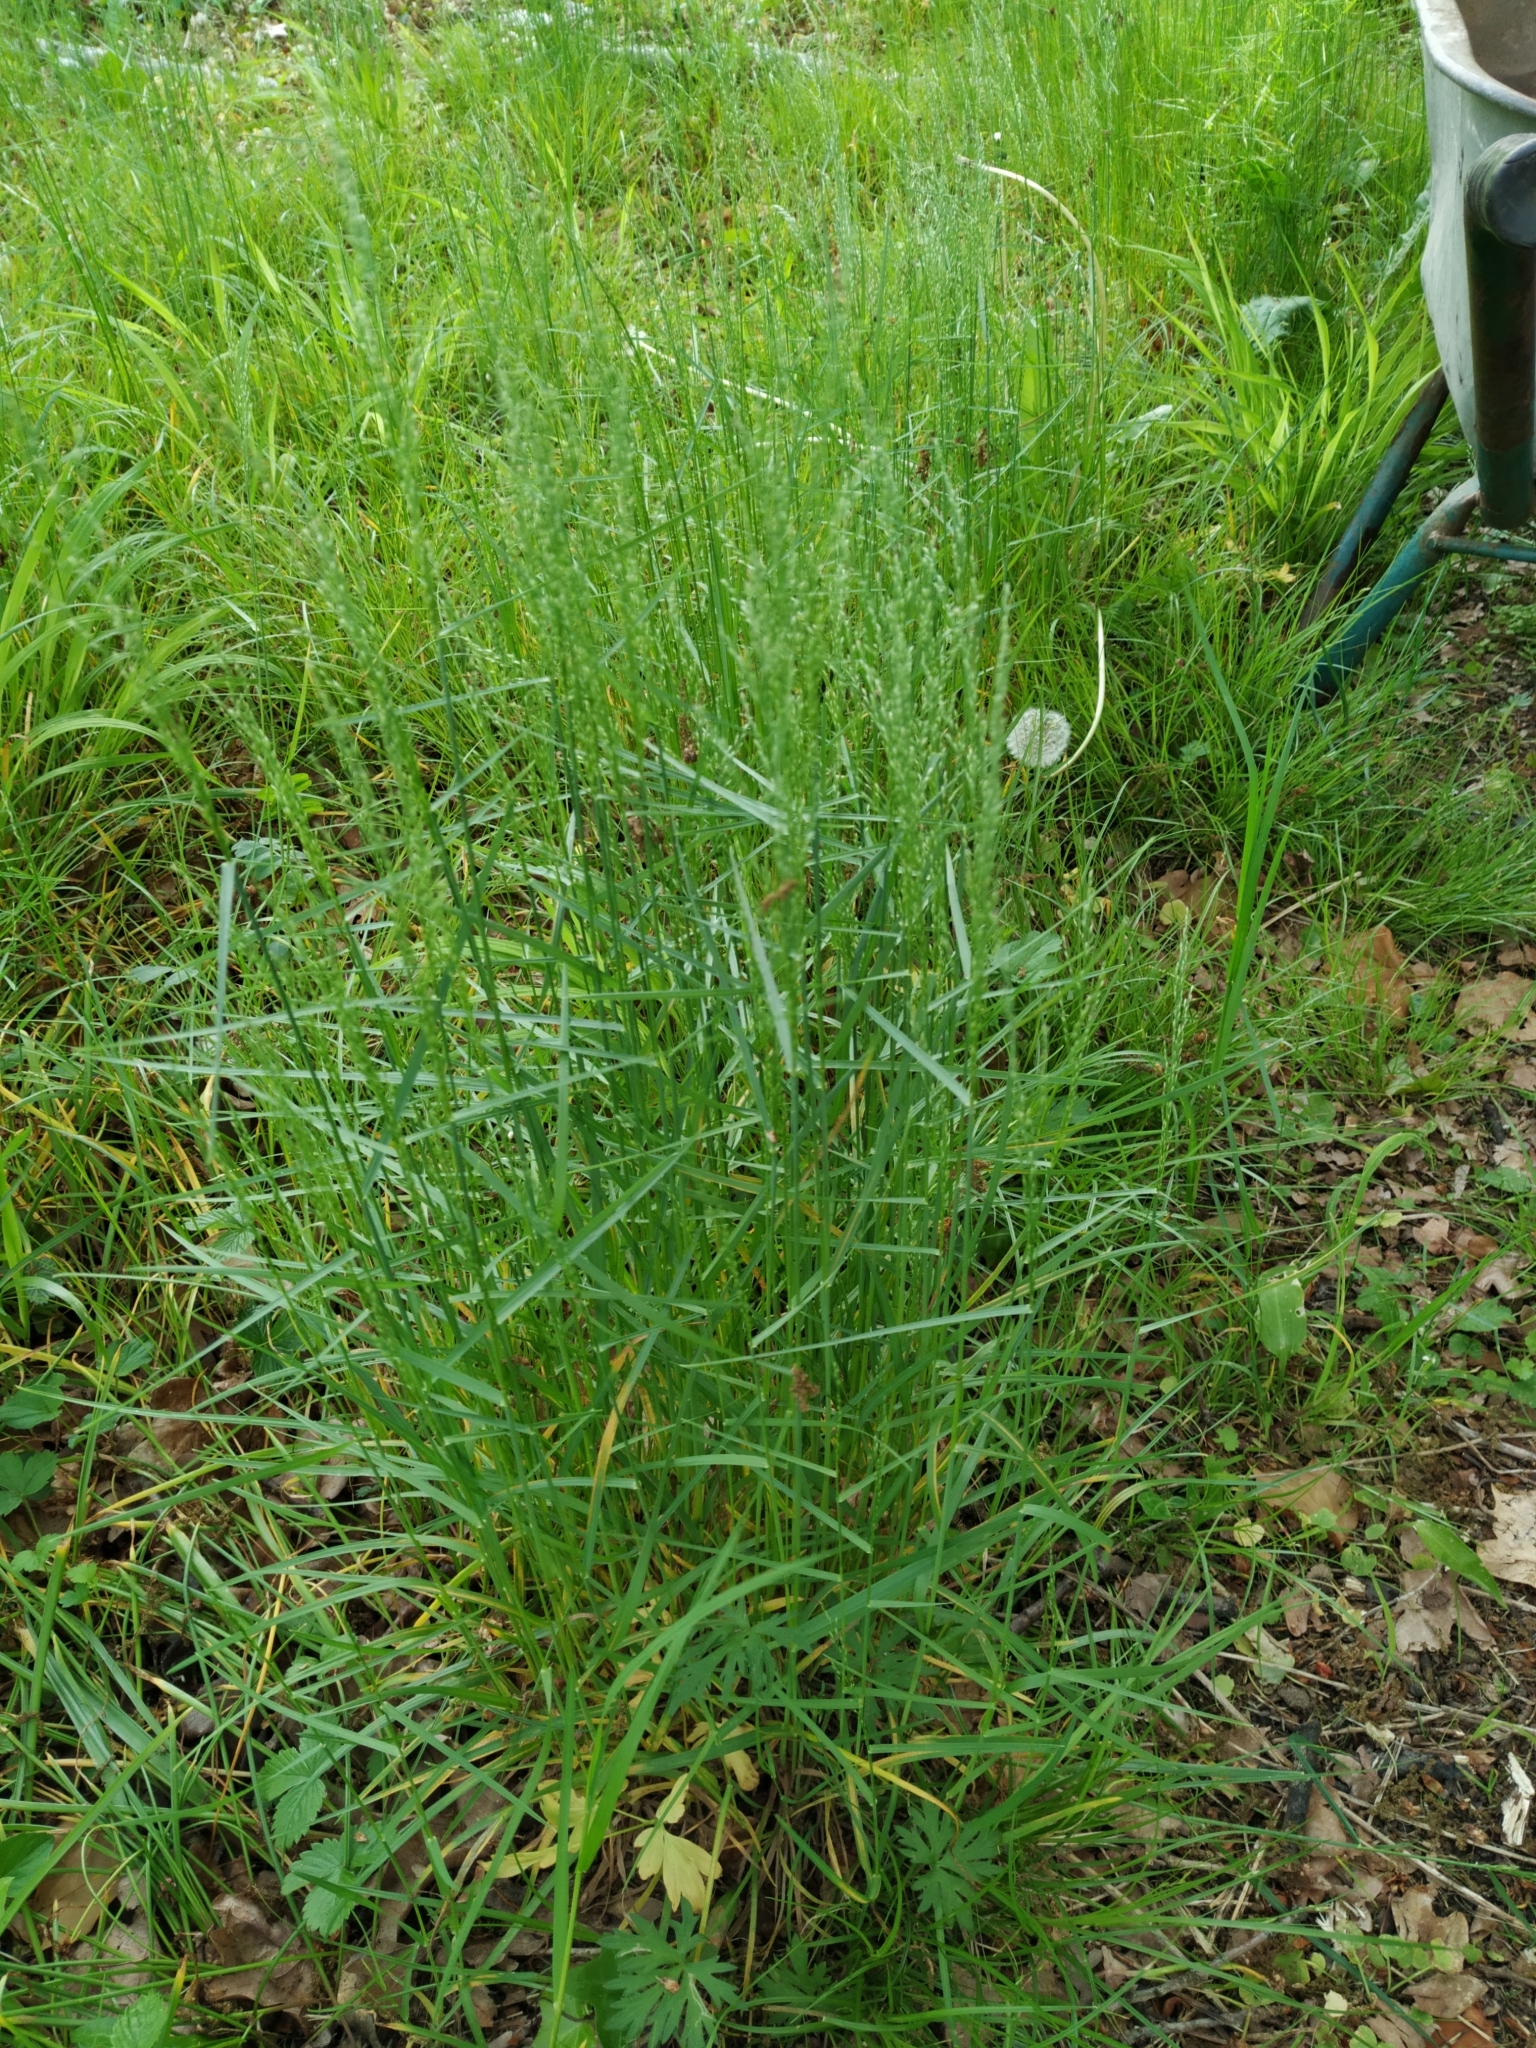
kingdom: Plantae
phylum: Tracheophyta
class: Liliopsida
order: Poales
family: Poaceae
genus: Poa
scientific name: Poa nemoralis
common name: Wood bluegrass
